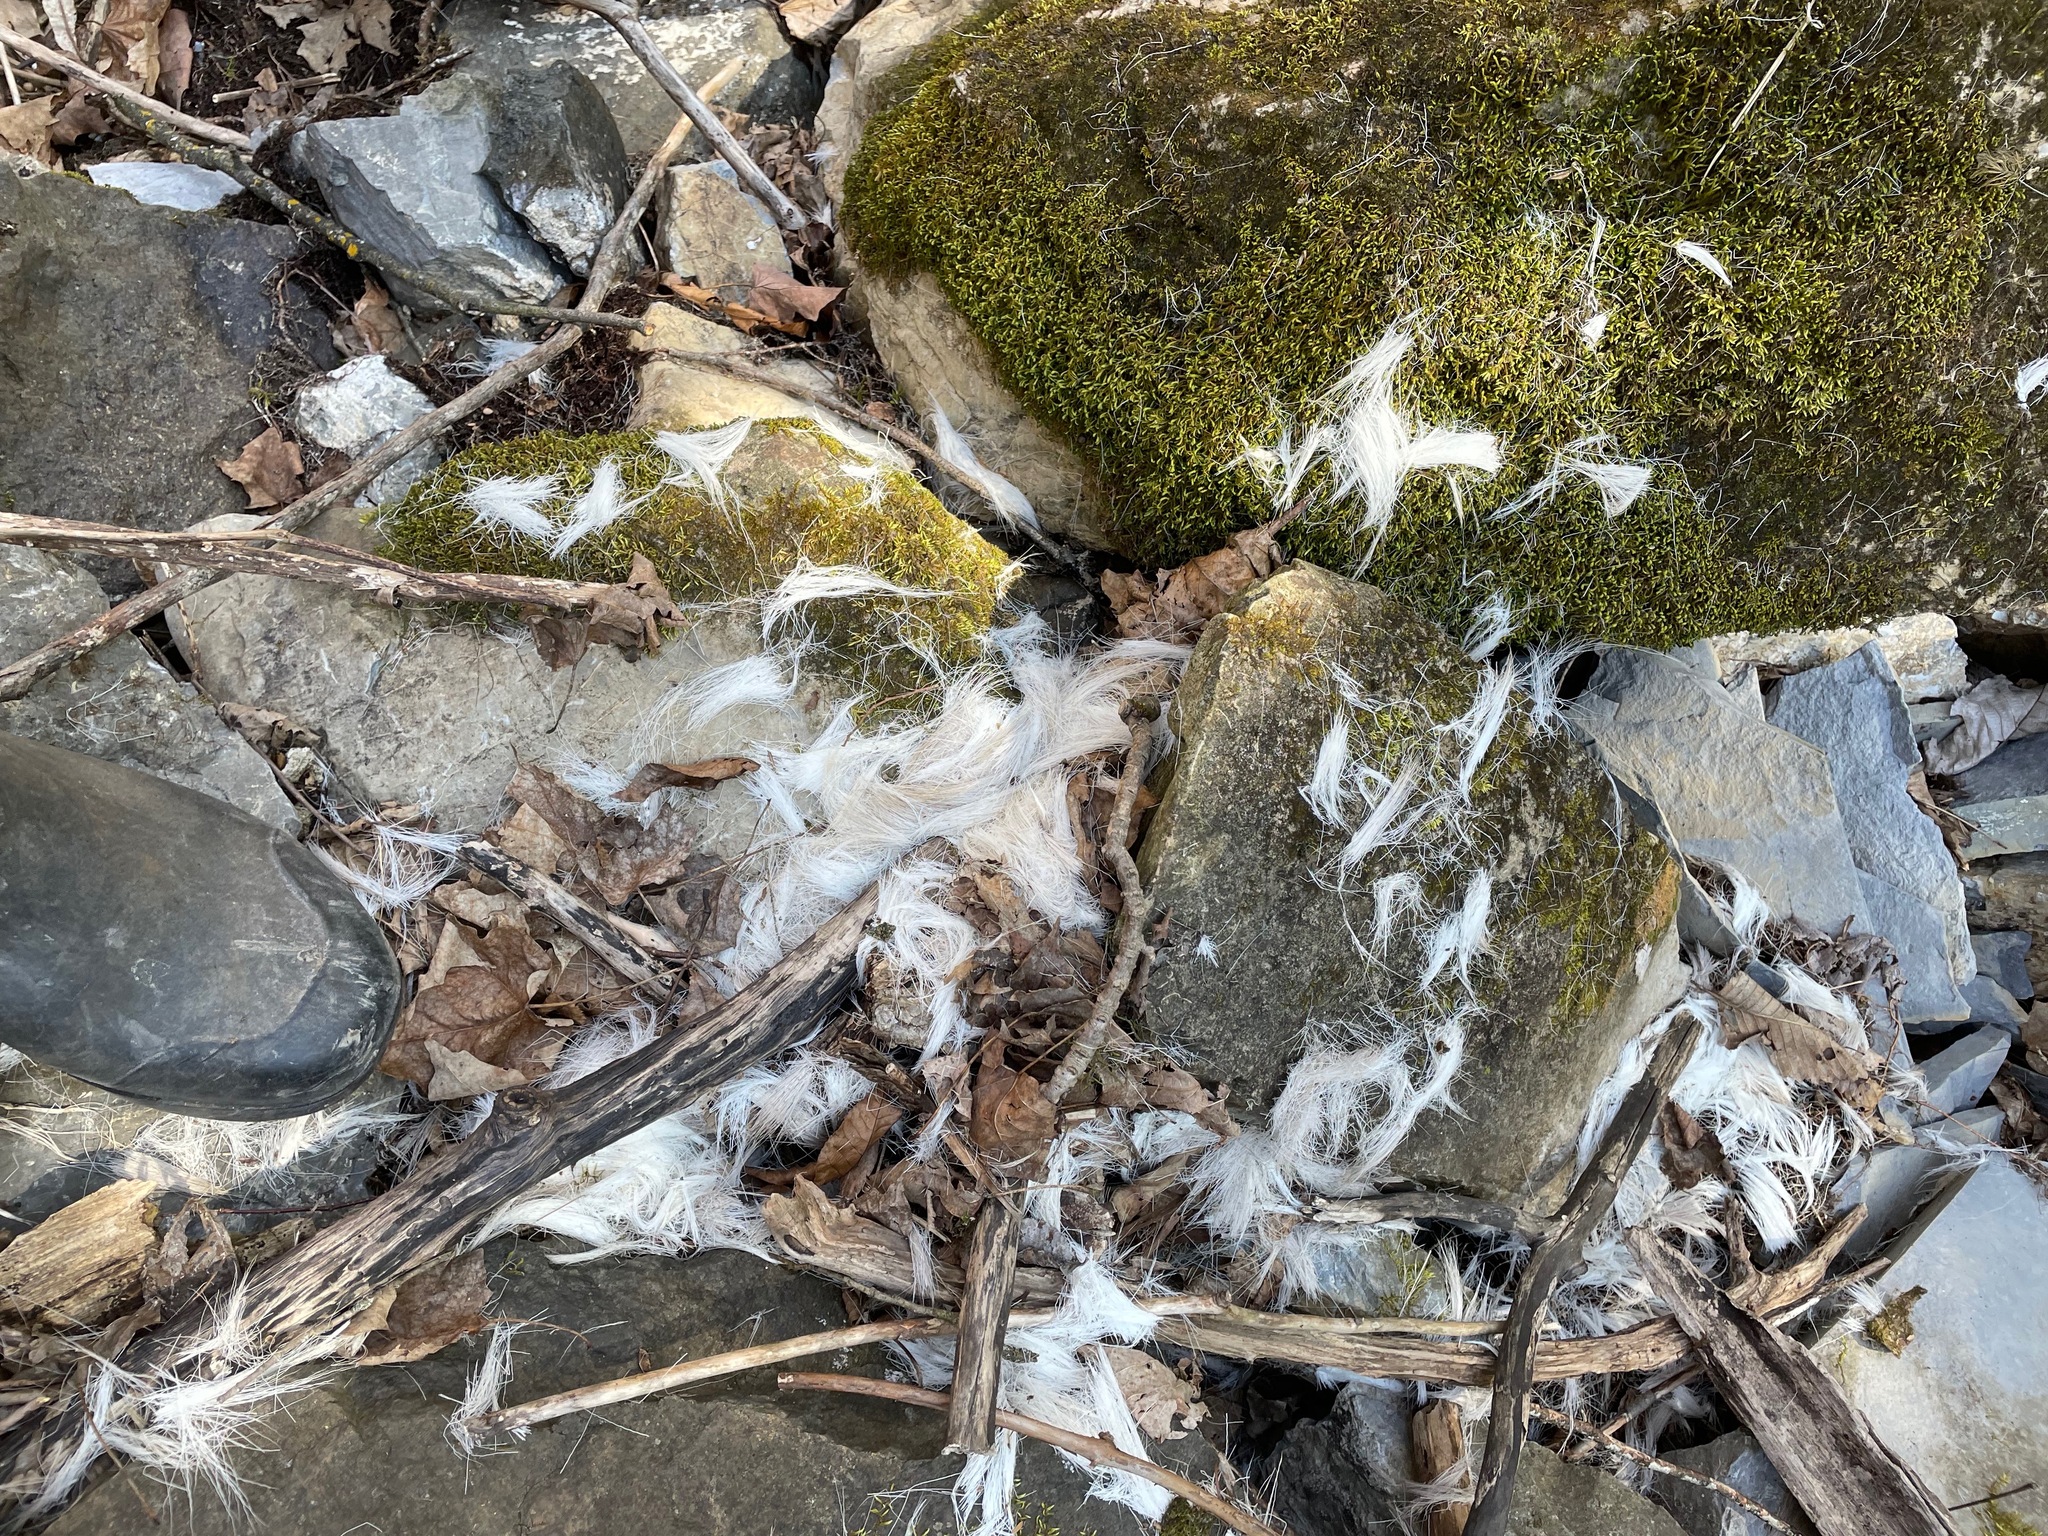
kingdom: Animalia
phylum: Chordata
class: Mammalia
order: Artiodactyla
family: Cervidae
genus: Odocoileus
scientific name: Odocoileus virginianus
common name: White-tailed deer
